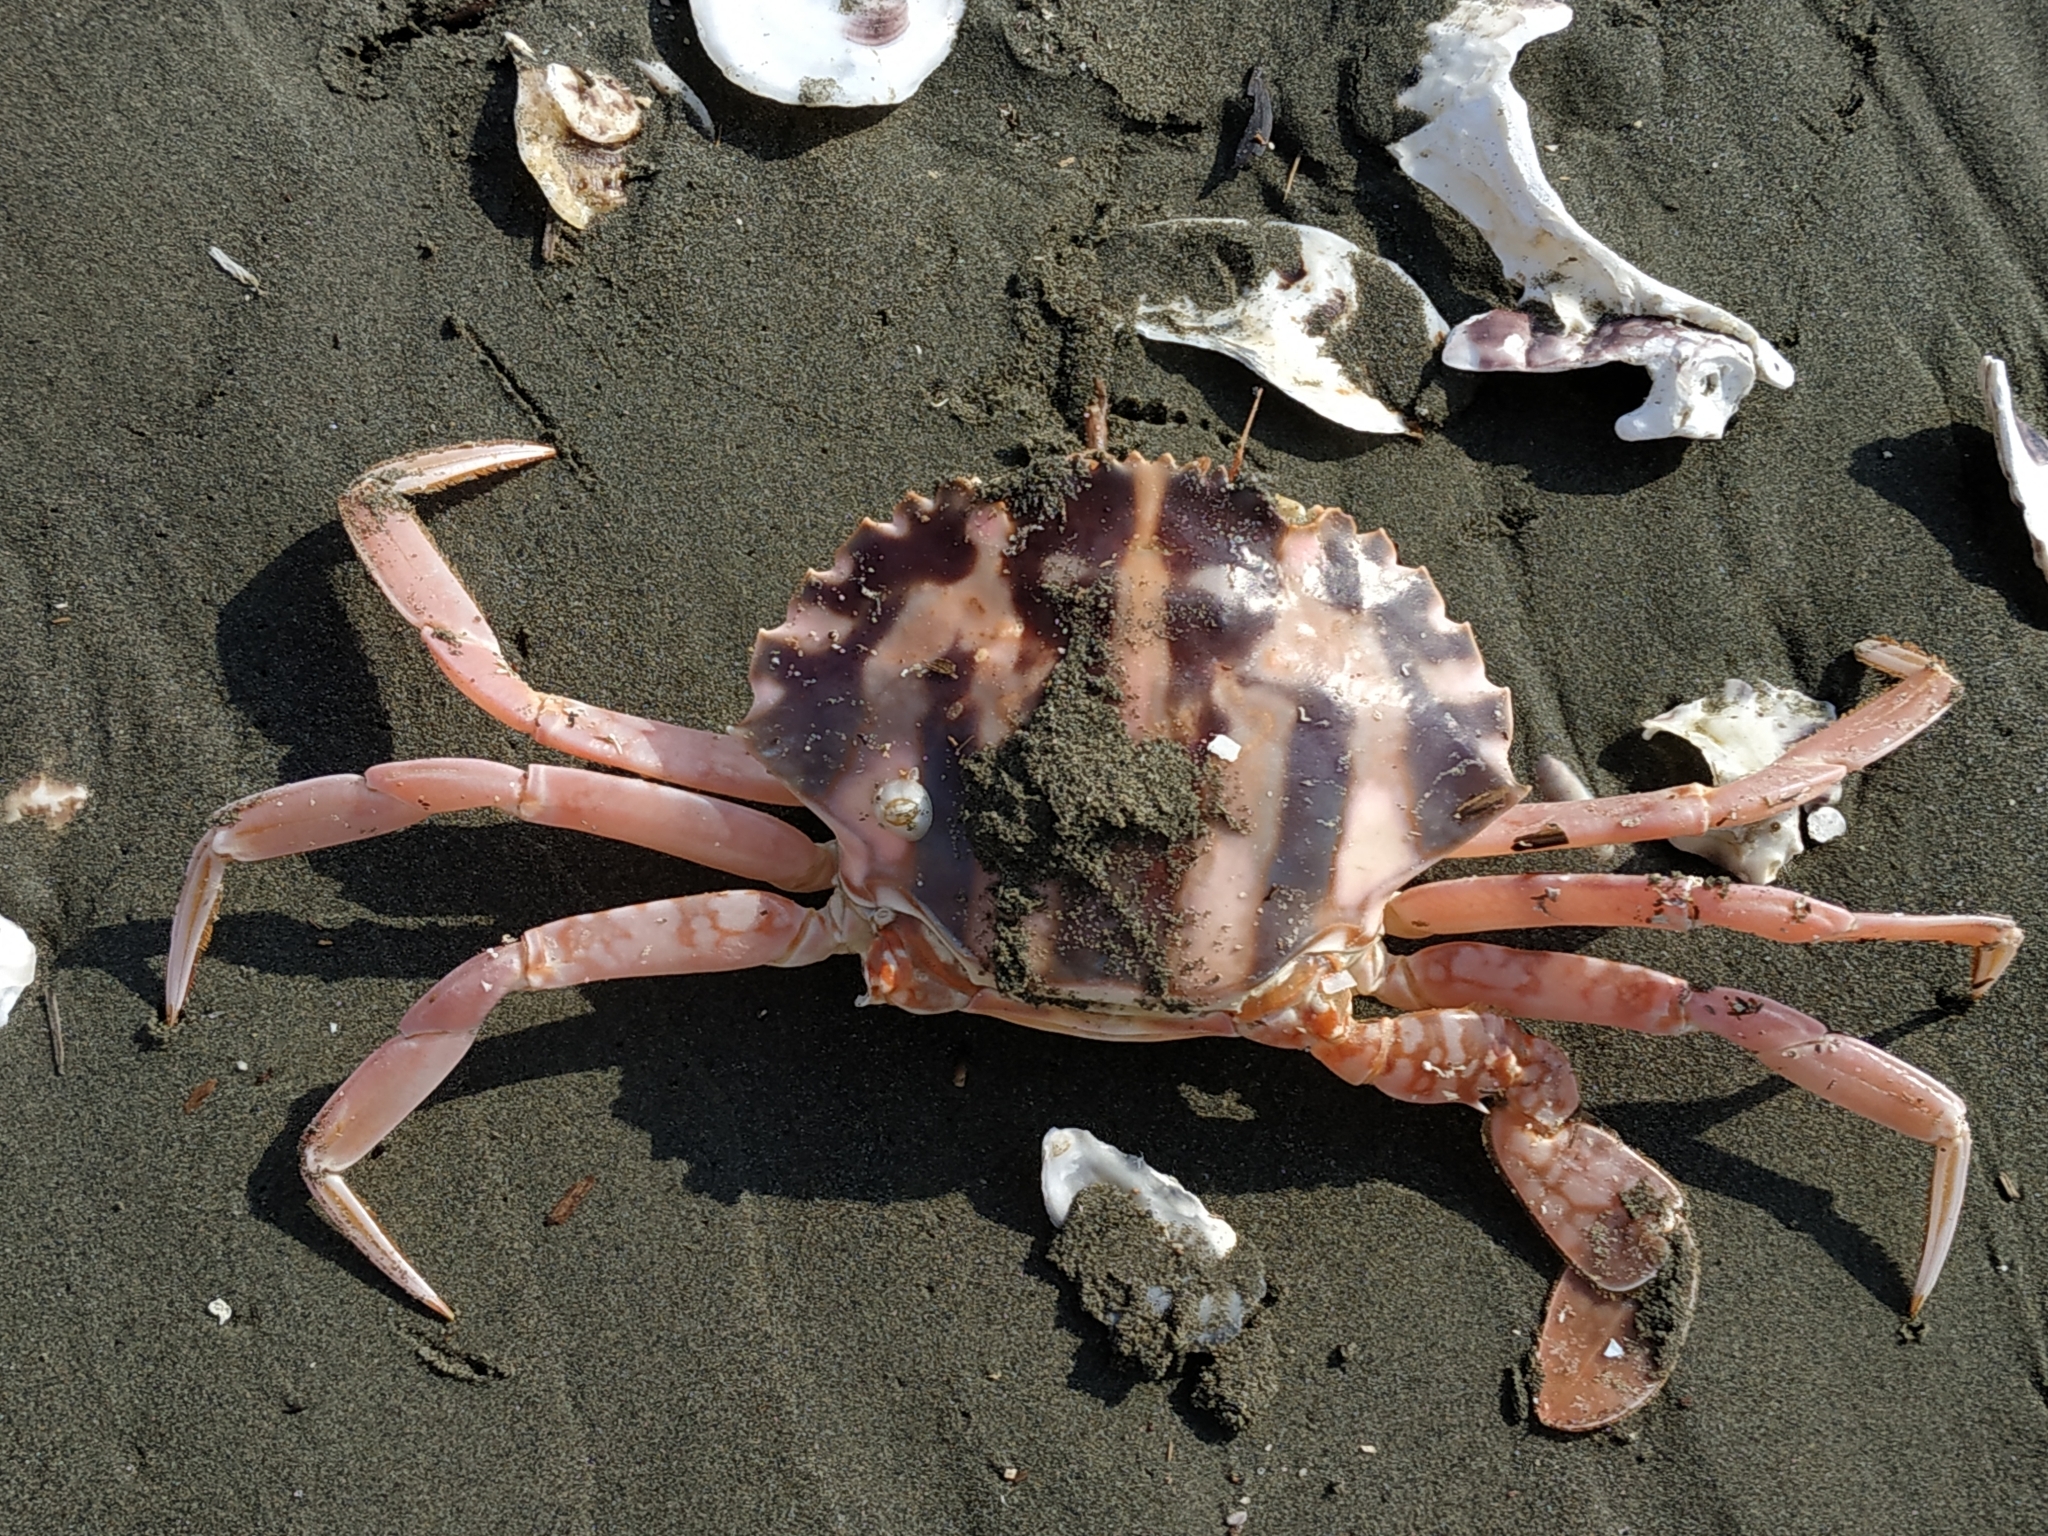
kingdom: Animalia
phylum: Arthropoda
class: Malacostraca
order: Decapoda
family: Portunidae
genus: Charybdis
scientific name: Charybdis feriata
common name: Striped swimming crab
